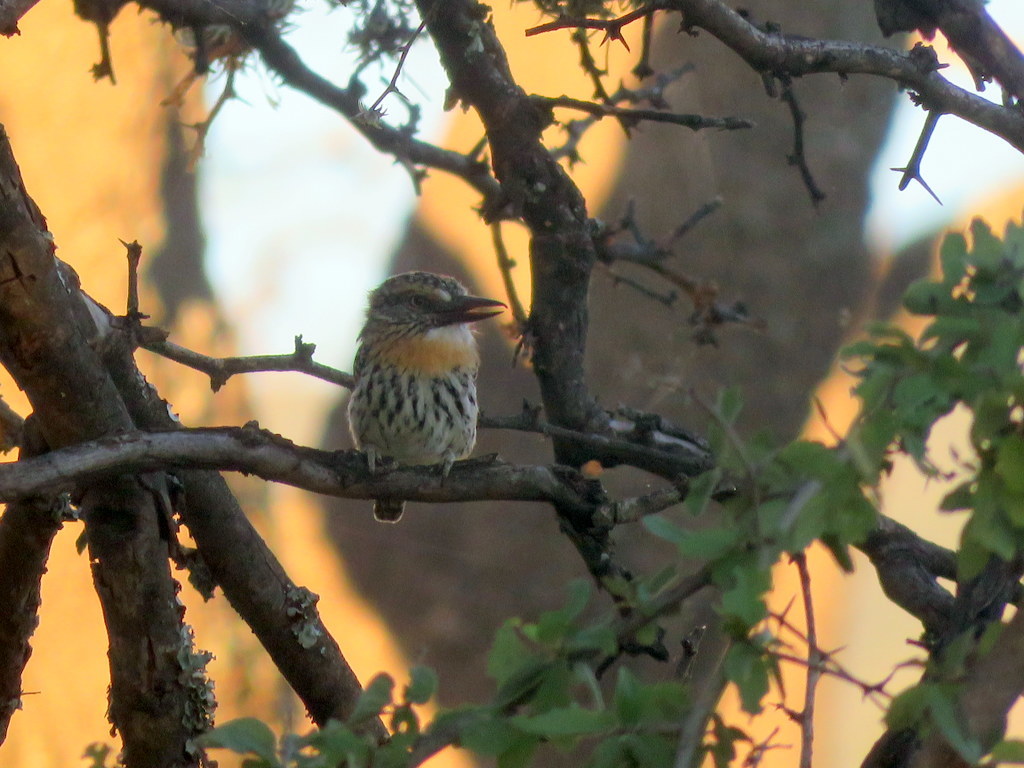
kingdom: Animalia
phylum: Chordata
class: Aves
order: Piciformes
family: Bucconidae
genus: Nystalus
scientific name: Nystalus maculatus
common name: Caatinga puffbird
